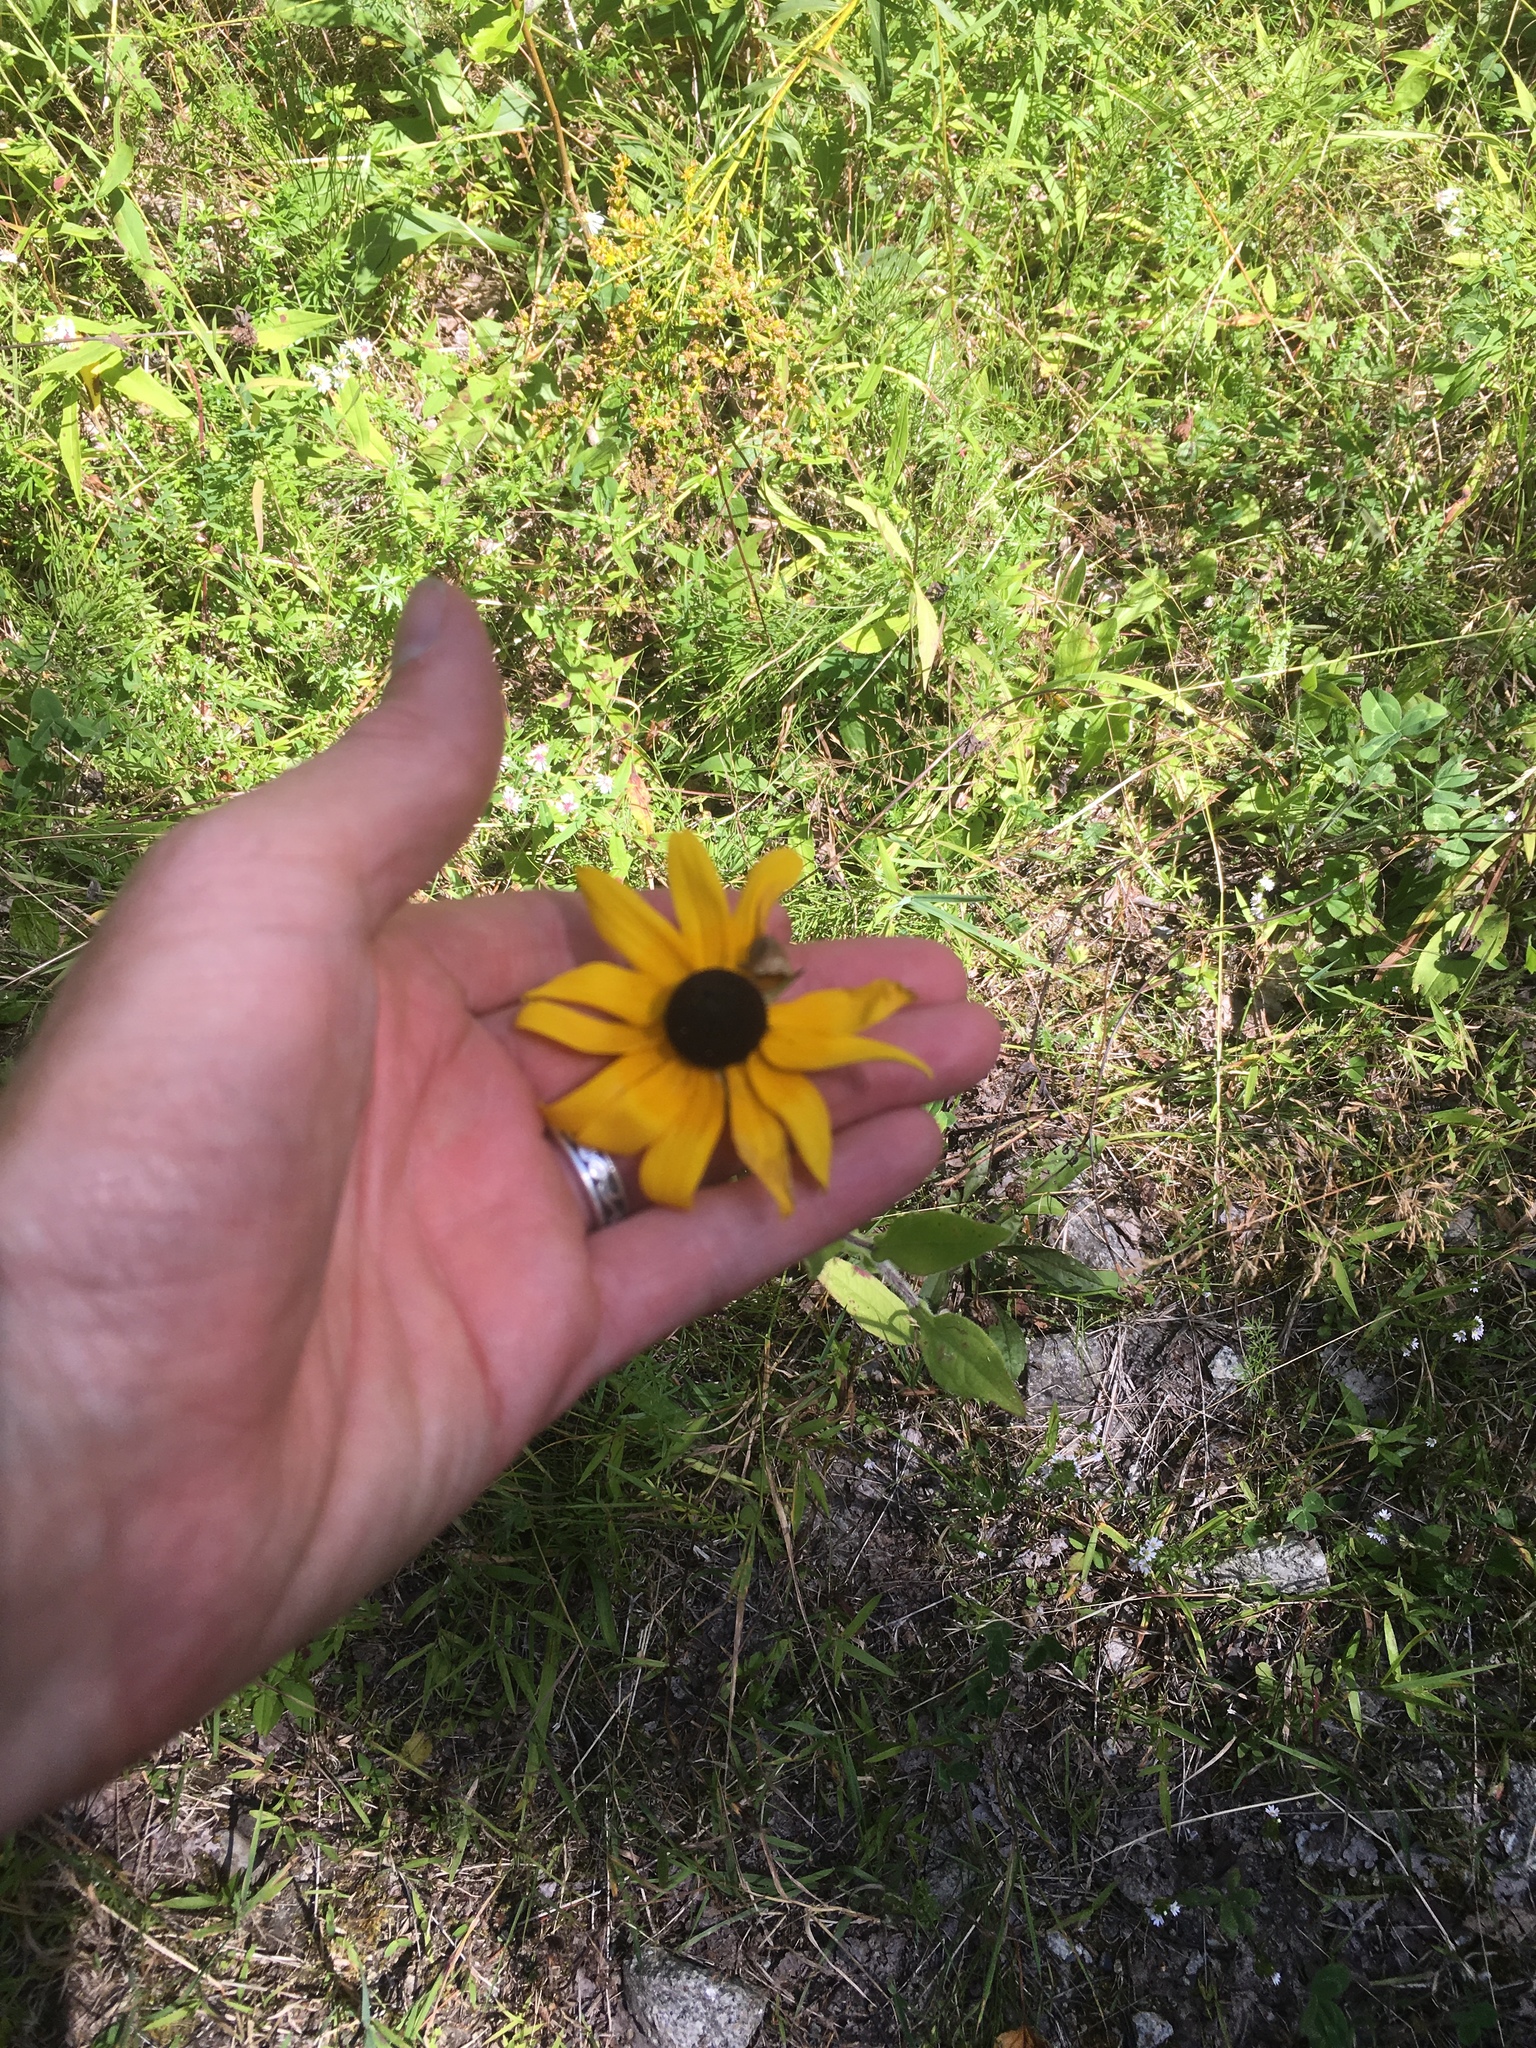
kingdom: Plantae
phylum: Tracheophyta
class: Magnoliopsida
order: Asterales
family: Asteraceae
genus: Rudbeckia
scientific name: Rudbeckia hirta
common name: Black-eyed-susan
